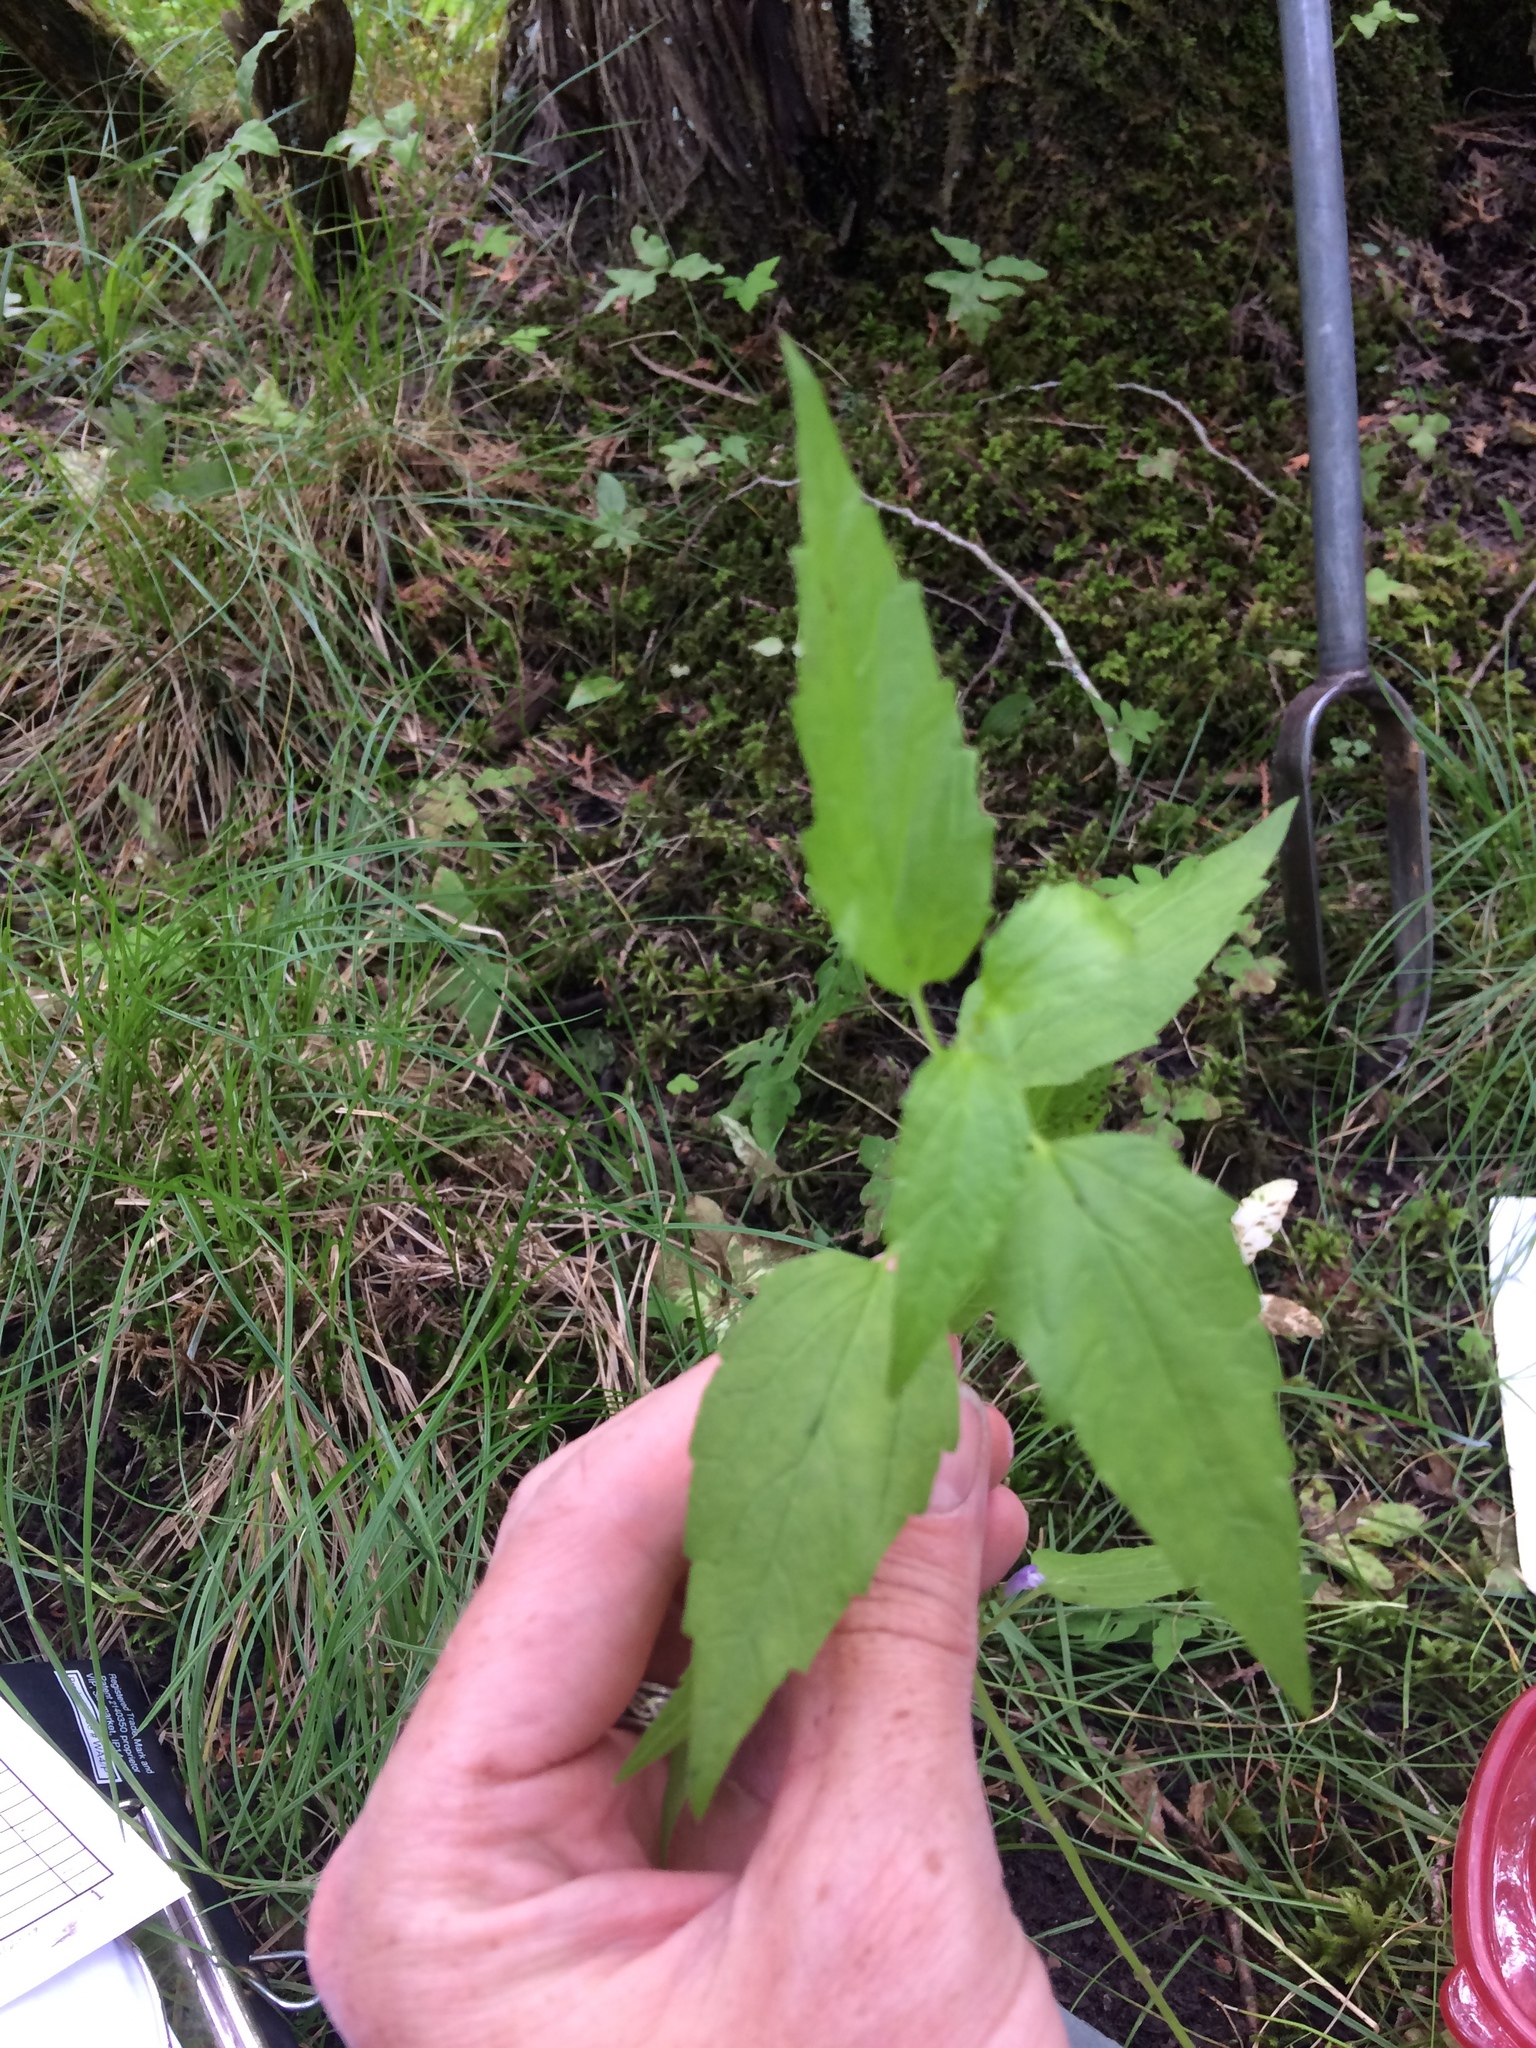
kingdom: Plantae
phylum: Tracheophyta
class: Magnoliopsida
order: Lamiales
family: Lamiaceae
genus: Scutellaria
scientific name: Scutellaria lateriflora
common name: Blue skullcap
